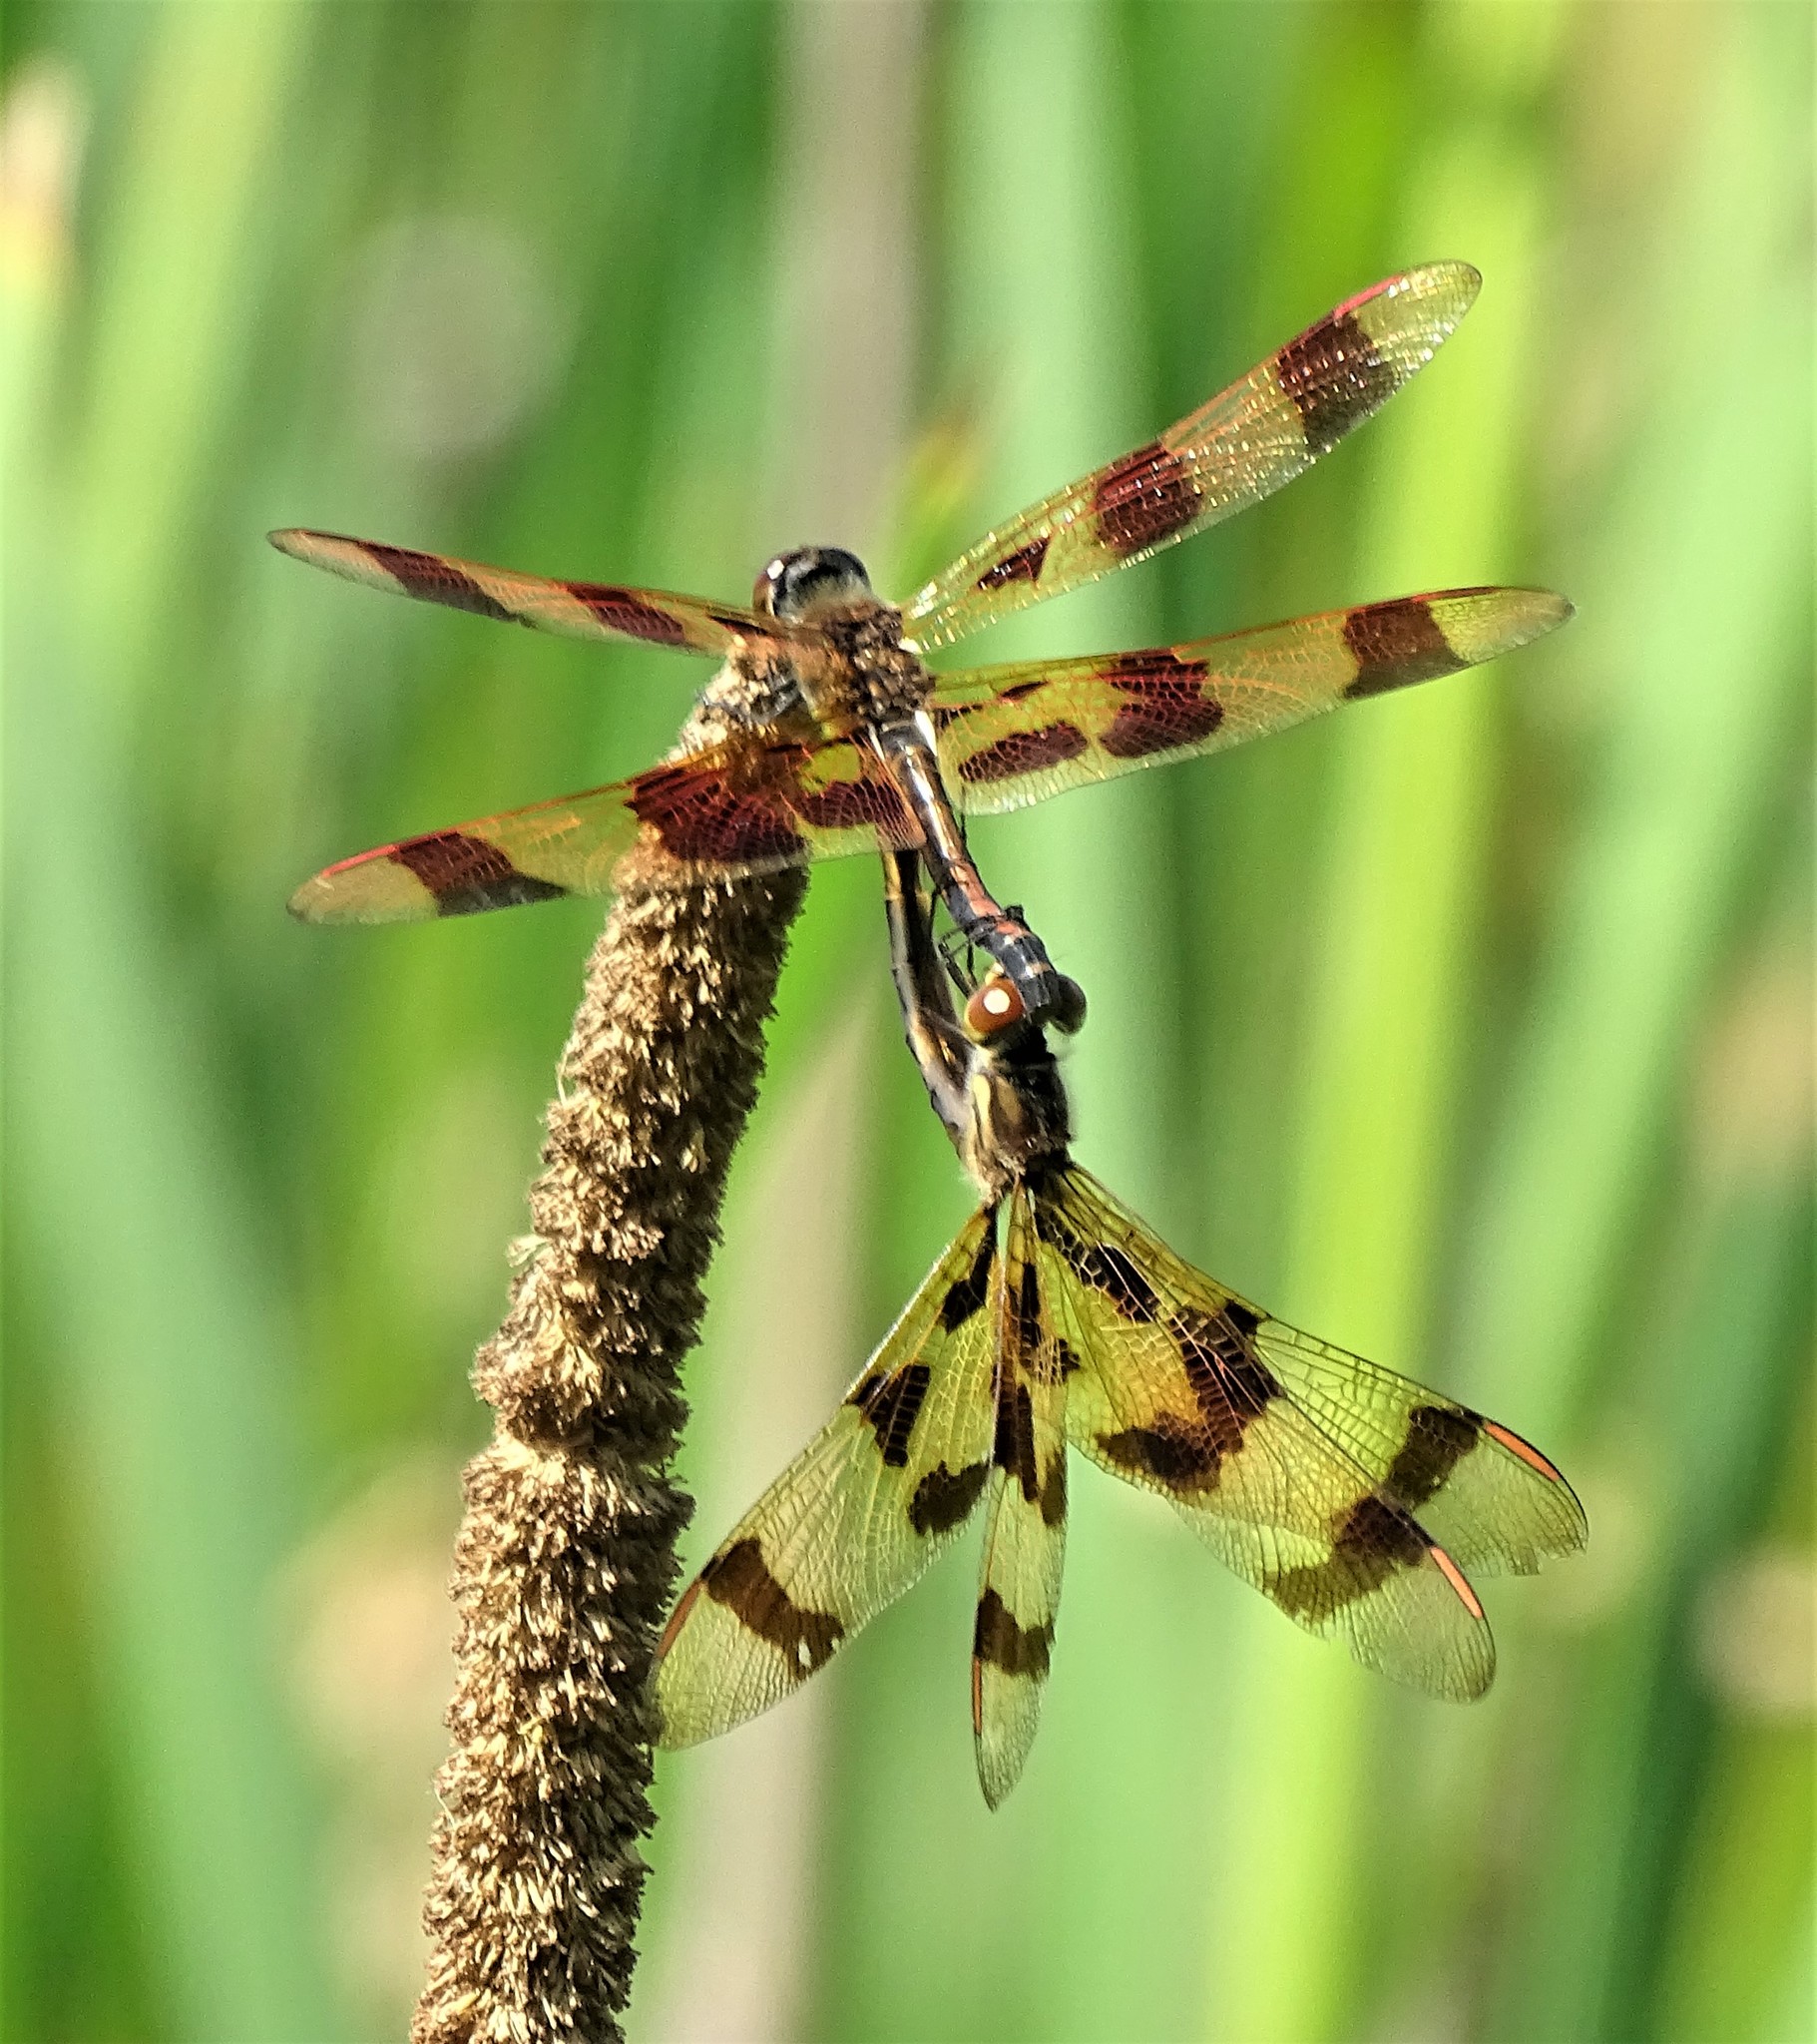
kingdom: Animalia
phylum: Arthropoda
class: Insecta
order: Odonata
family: Libellulidae
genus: Celithemis
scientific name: Celithemis eponina
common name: Halloween pennant
